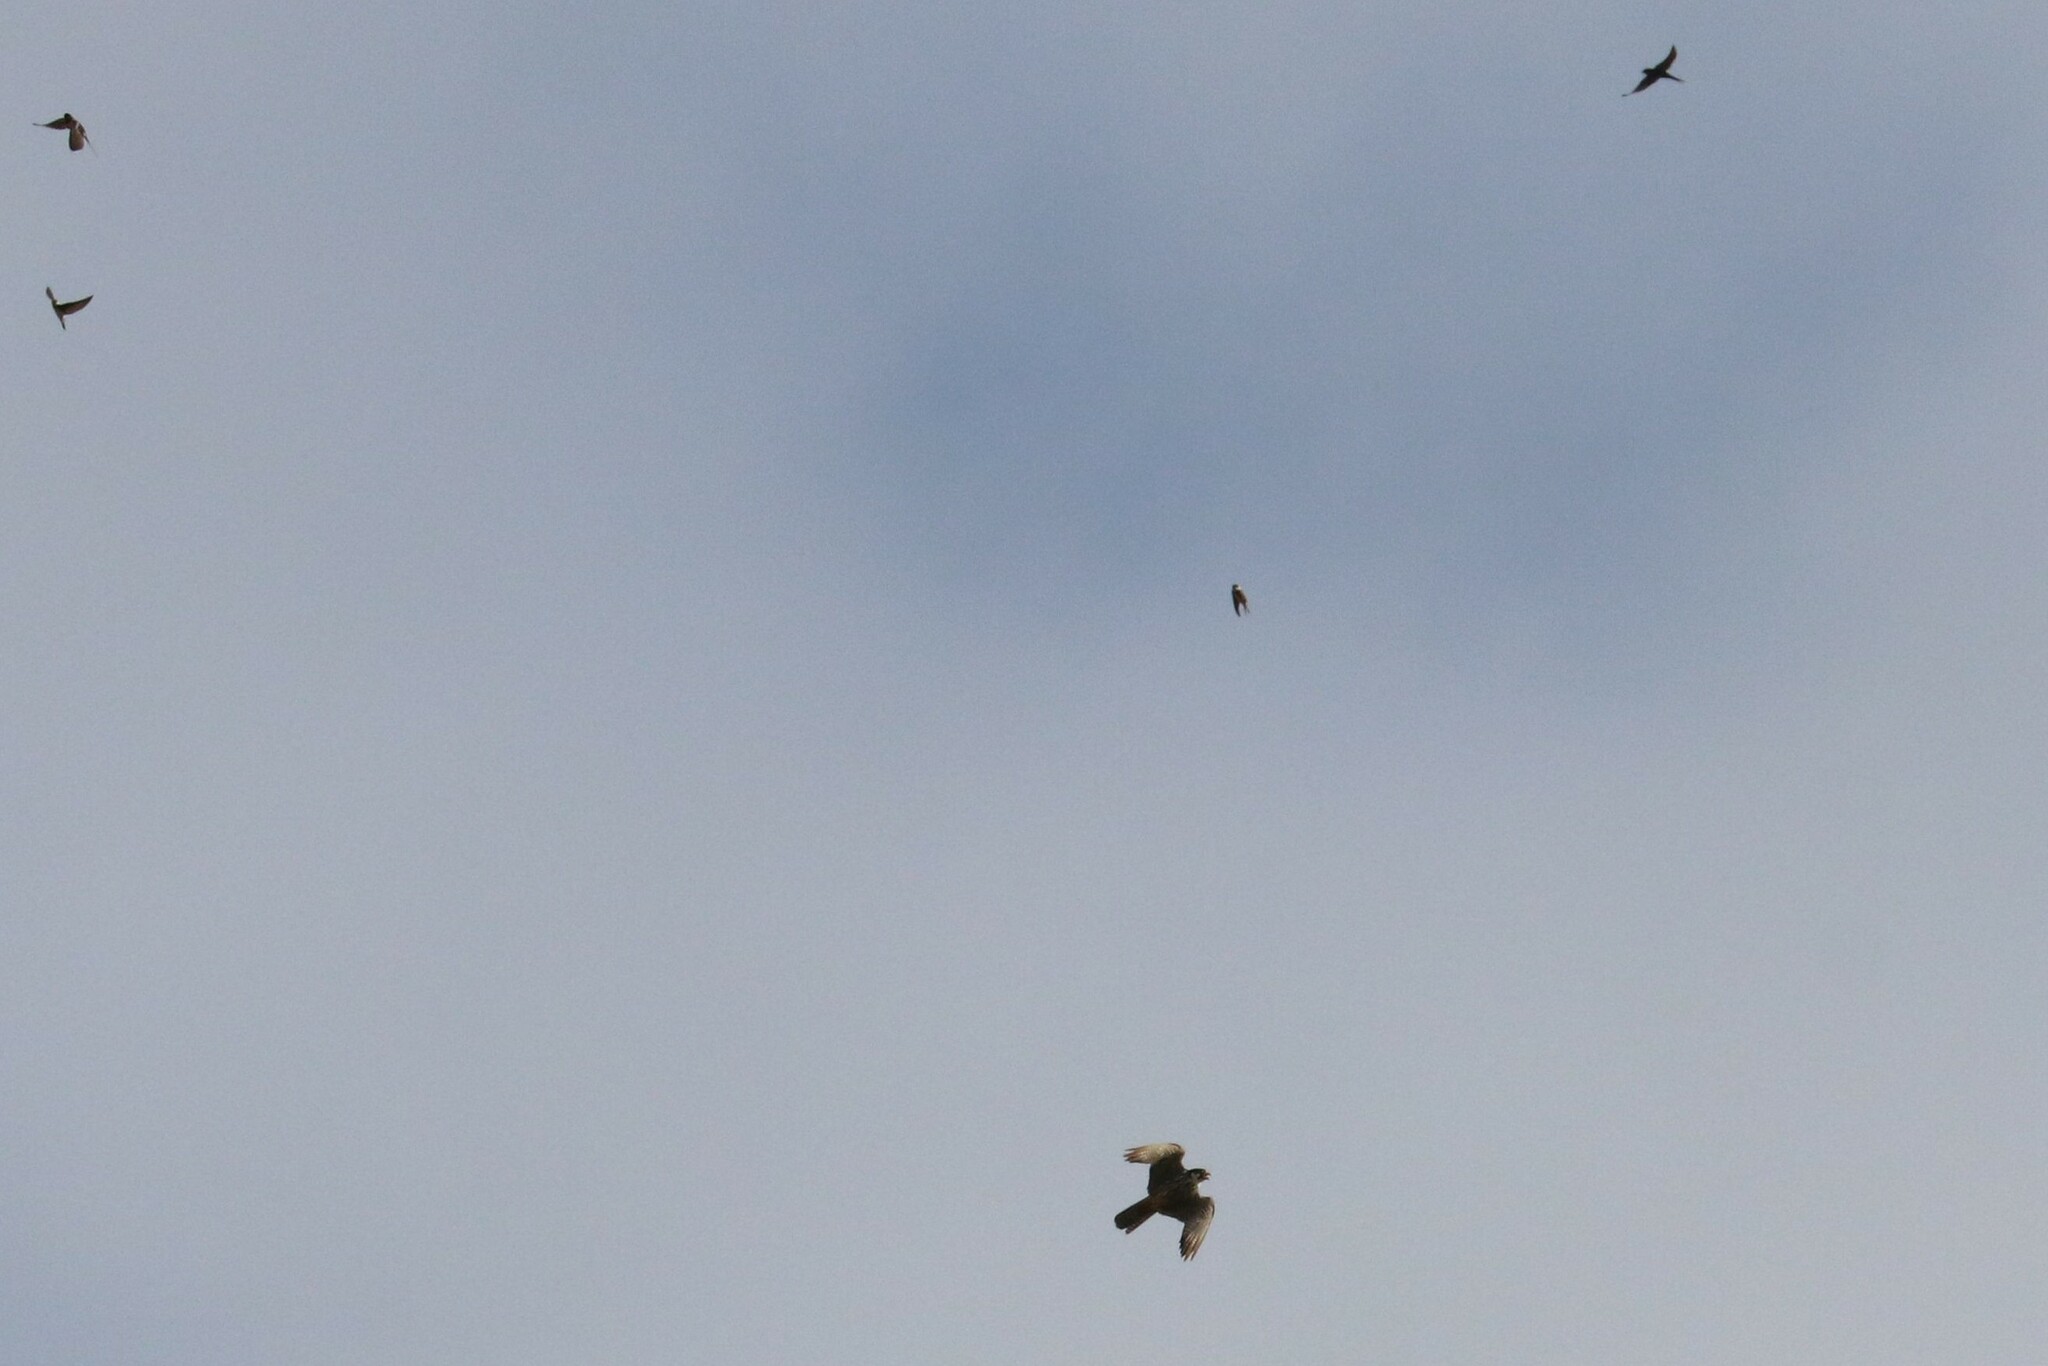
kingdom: Animalia
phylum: Chordata
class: Aves
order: Falconiformes
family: Falconidae
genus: Falco
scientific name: Falco subbuteo
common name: Eurasian hobby
